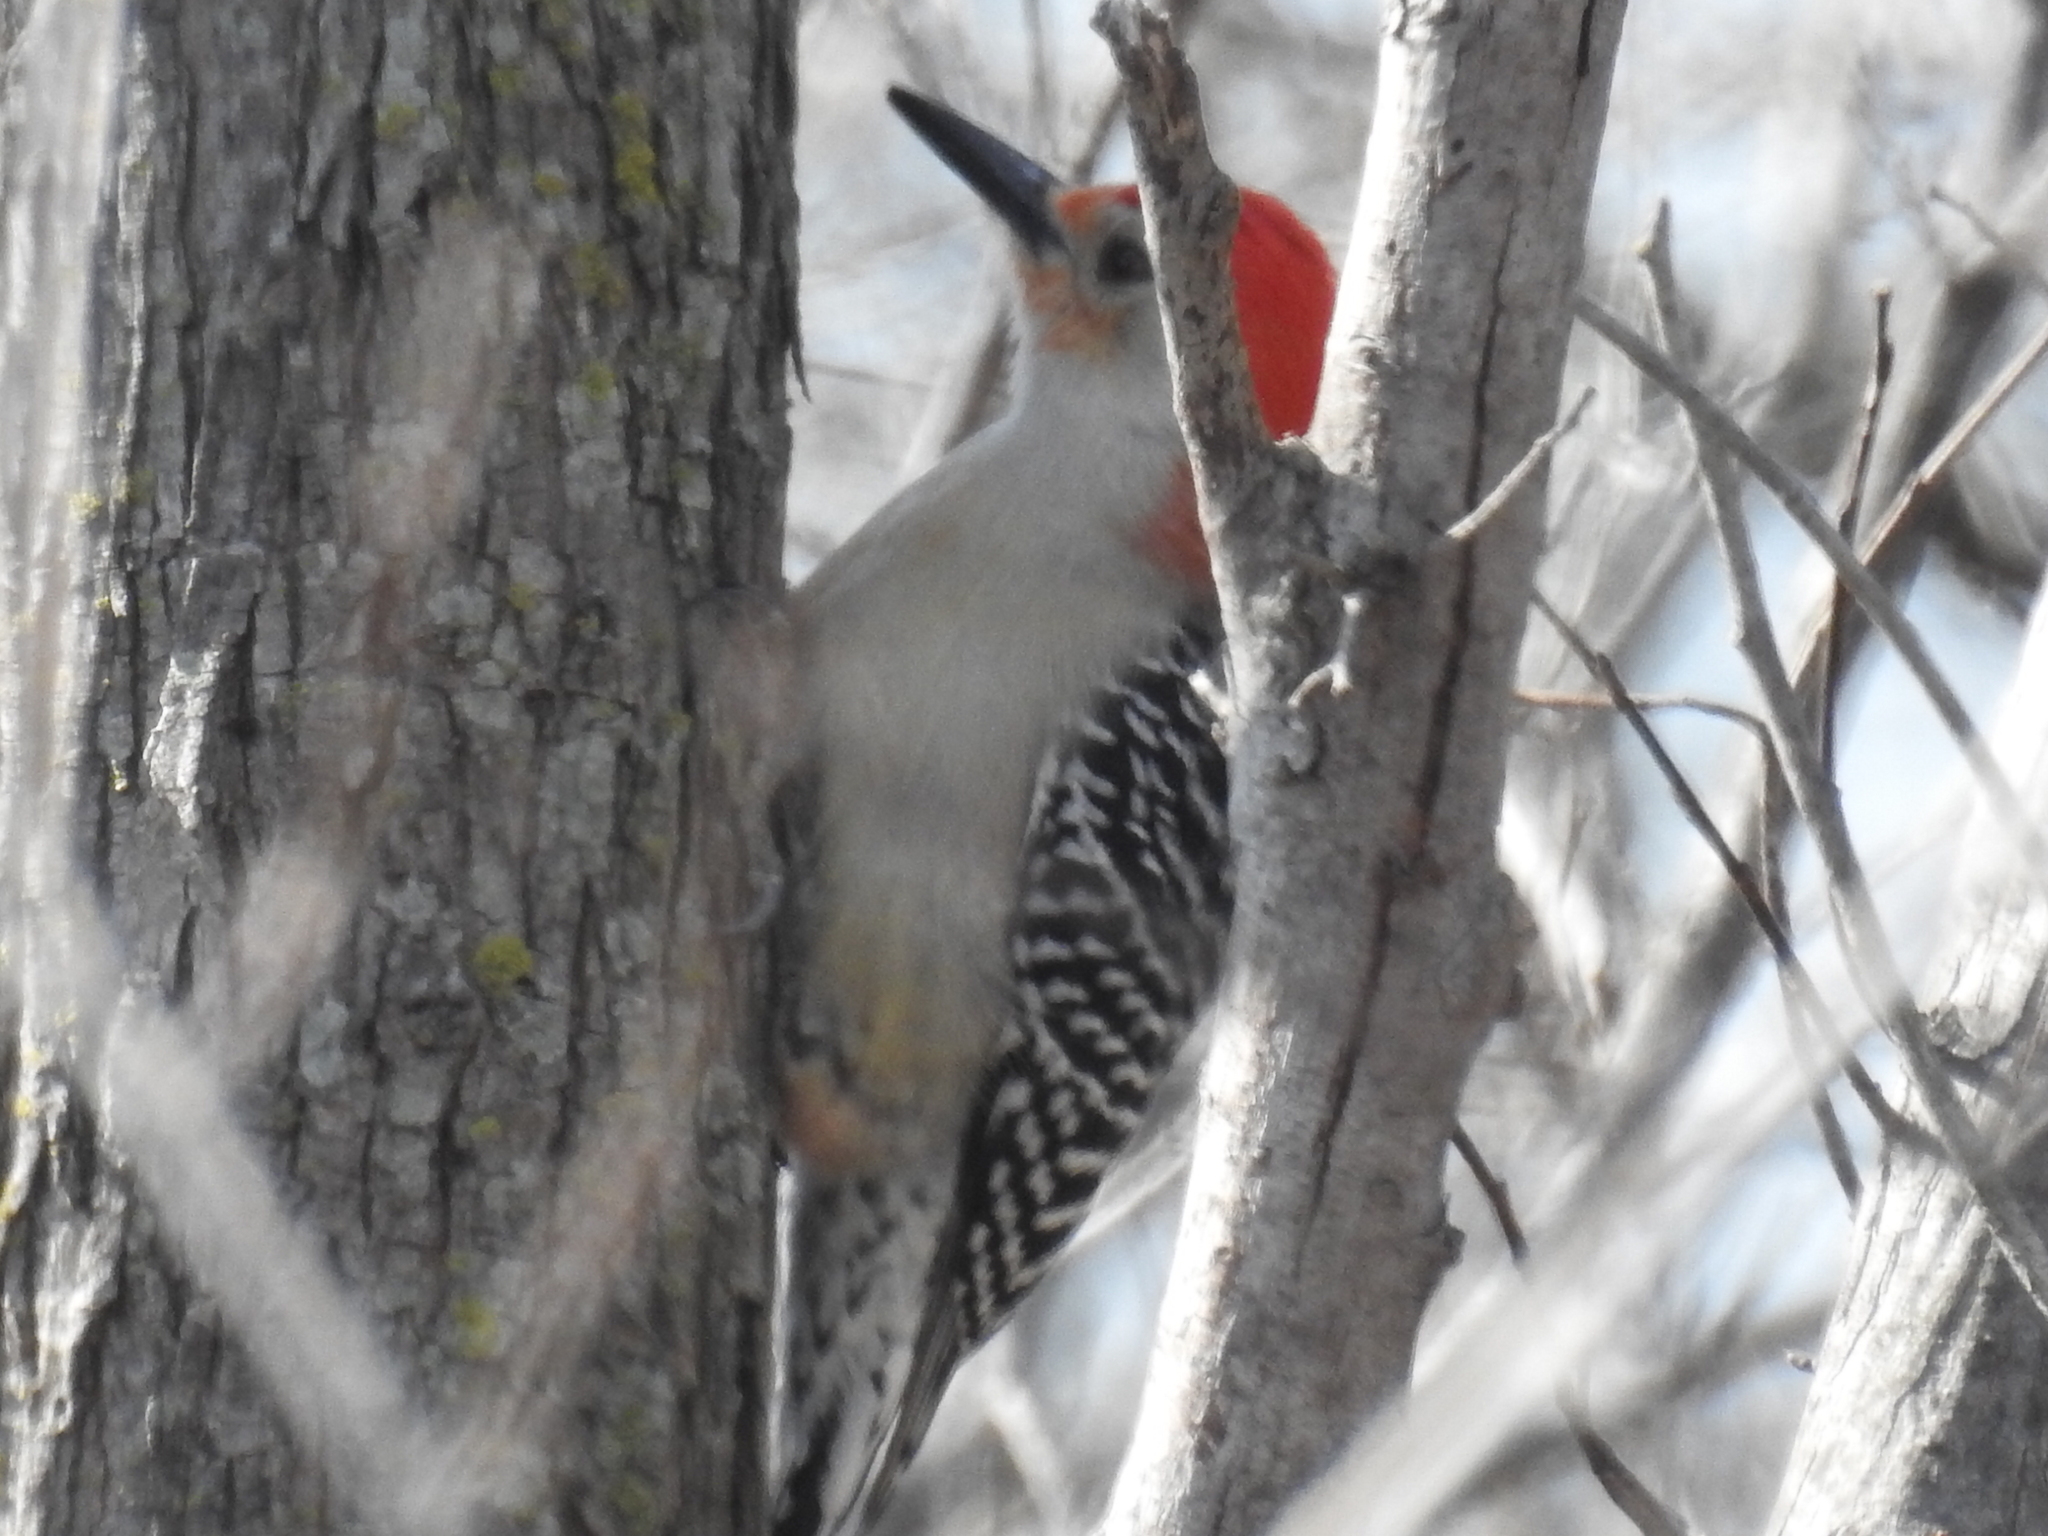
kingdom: Animalia
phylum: Chordata
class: Aves
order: Piciformes
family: Picidae
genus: Melanerpes
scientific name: Melanerpes carolinus
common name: Red-bellied woodpecker
